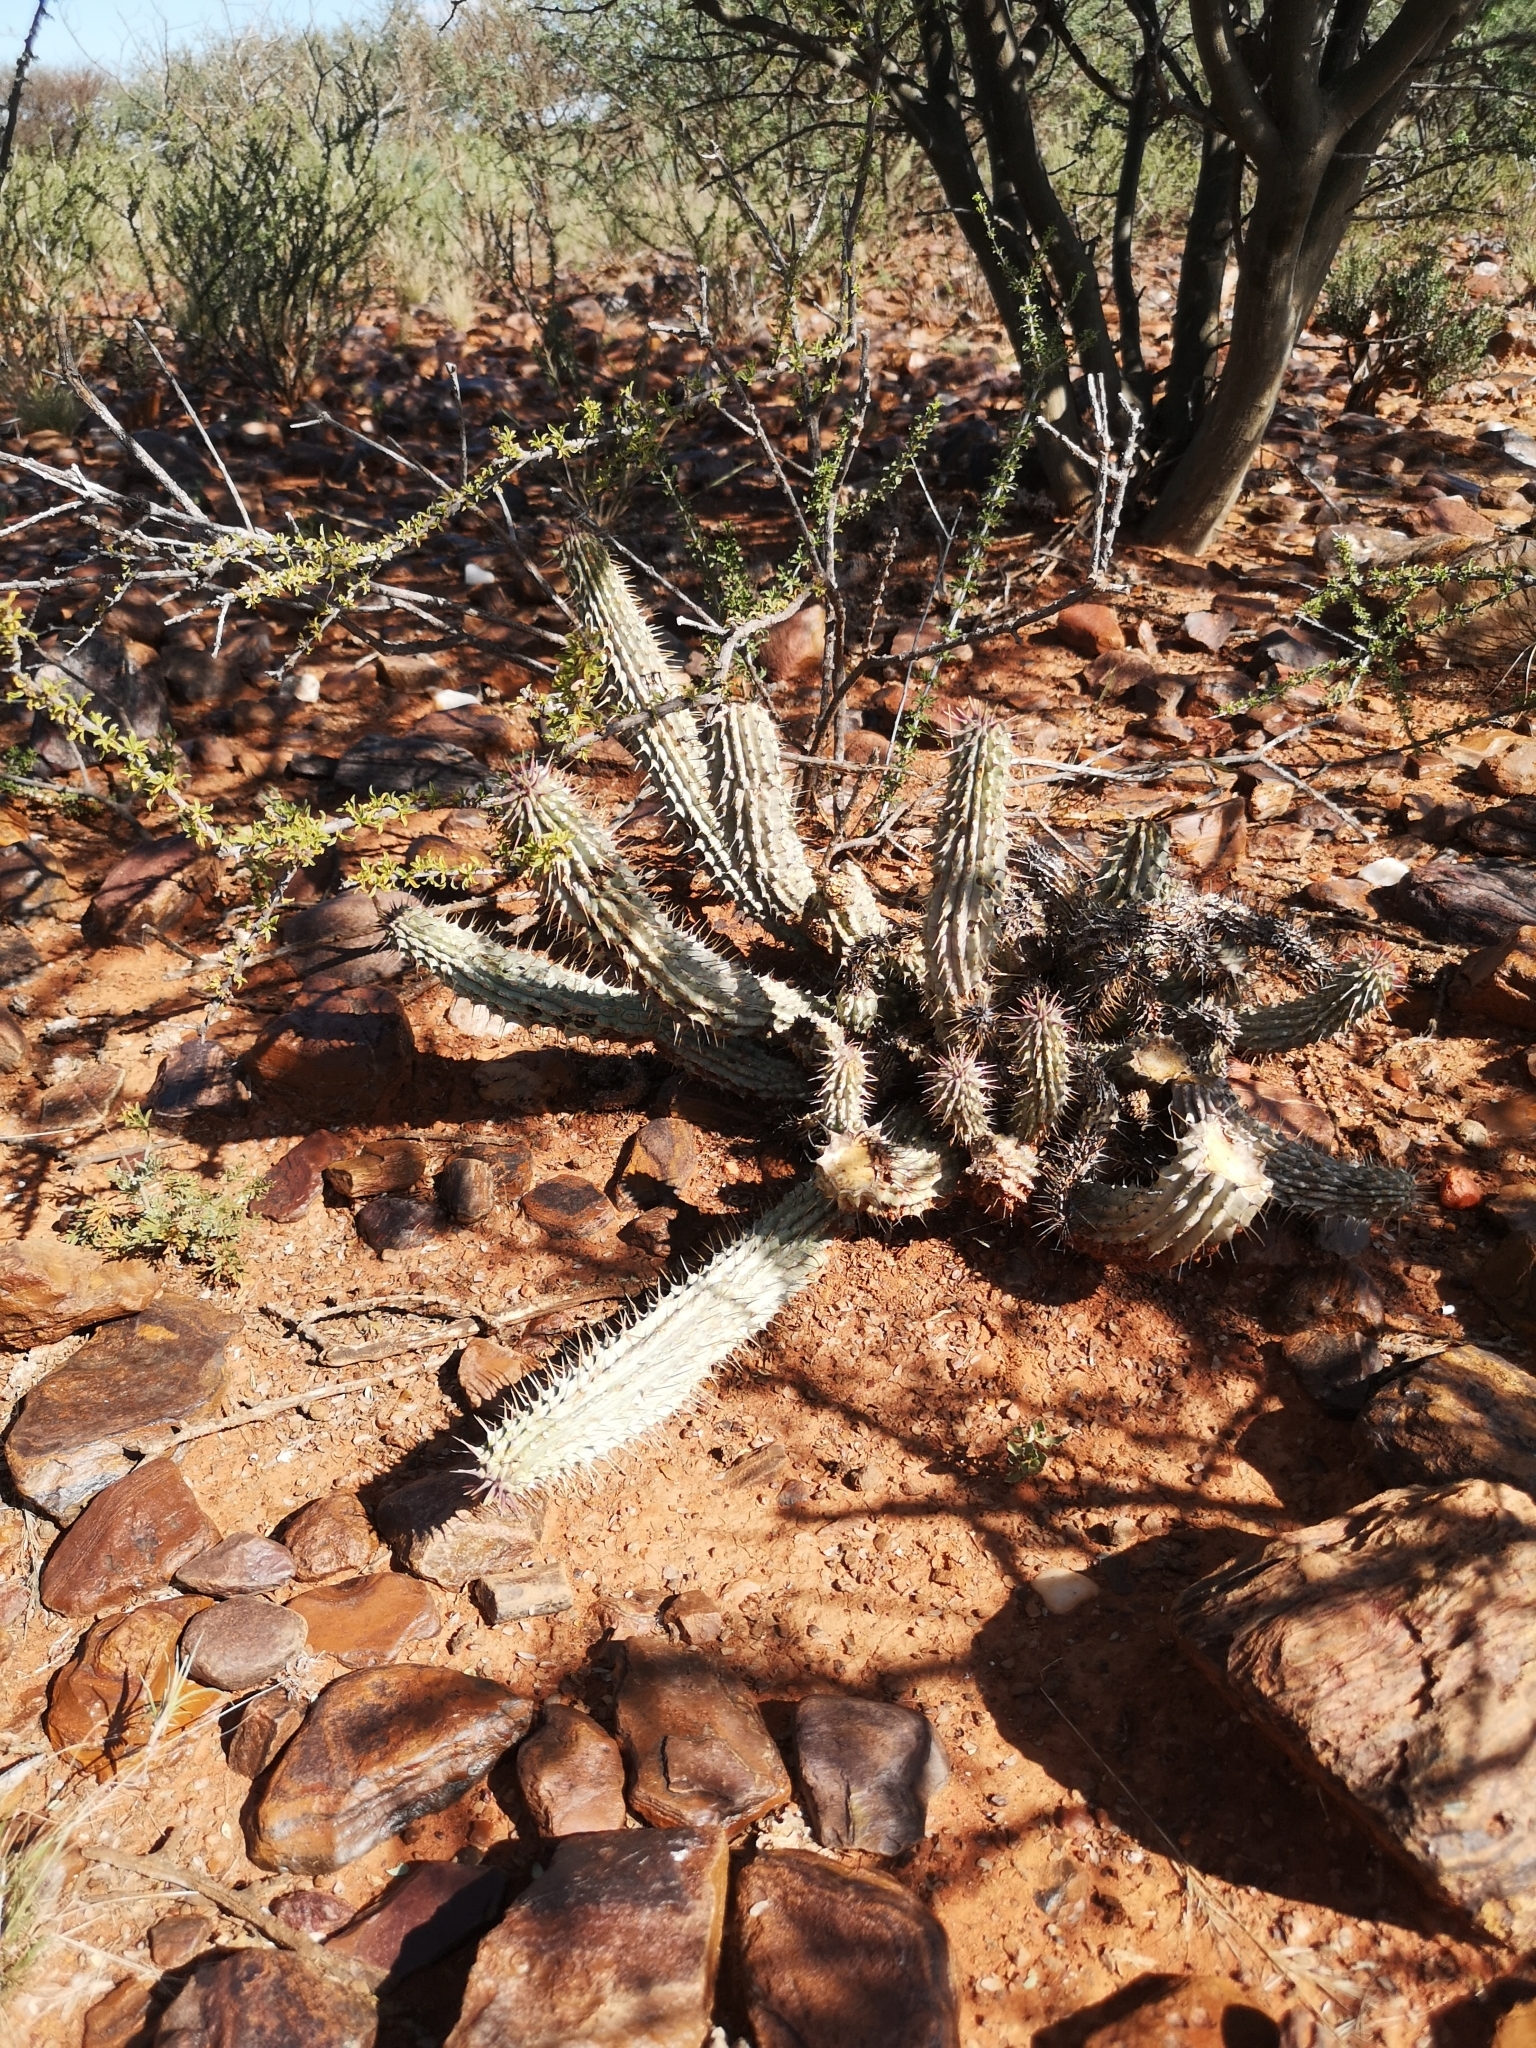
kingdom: Plantae
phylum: Tracheophyta
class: Magnoliopsida
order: Gentianales
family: Apocynaceae
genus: Hoodia
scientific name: Hoodia gordonii
